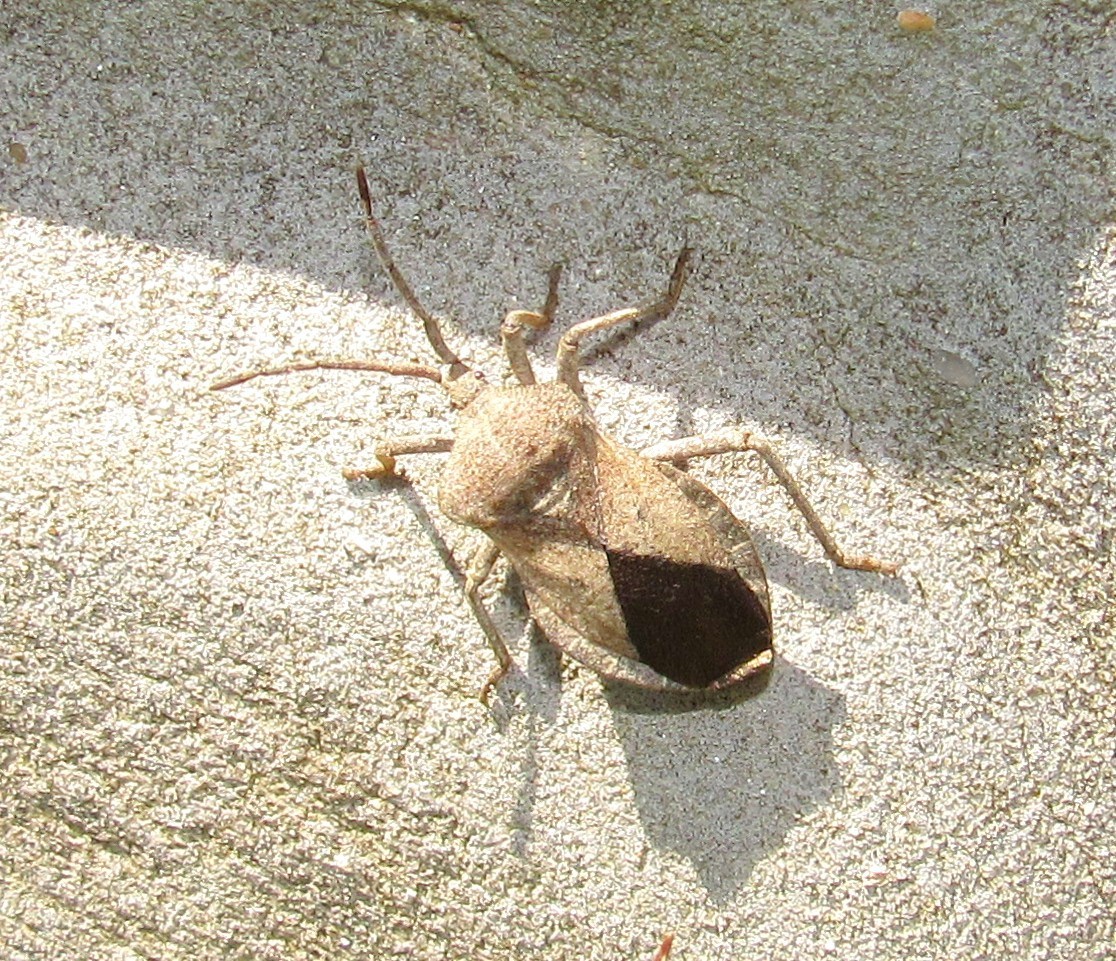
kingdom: Animalia
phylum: Arthropoda
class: Insecta
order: Hemiptera
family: Coreidae
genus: Spartocera
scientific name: Spartocera lativentris
